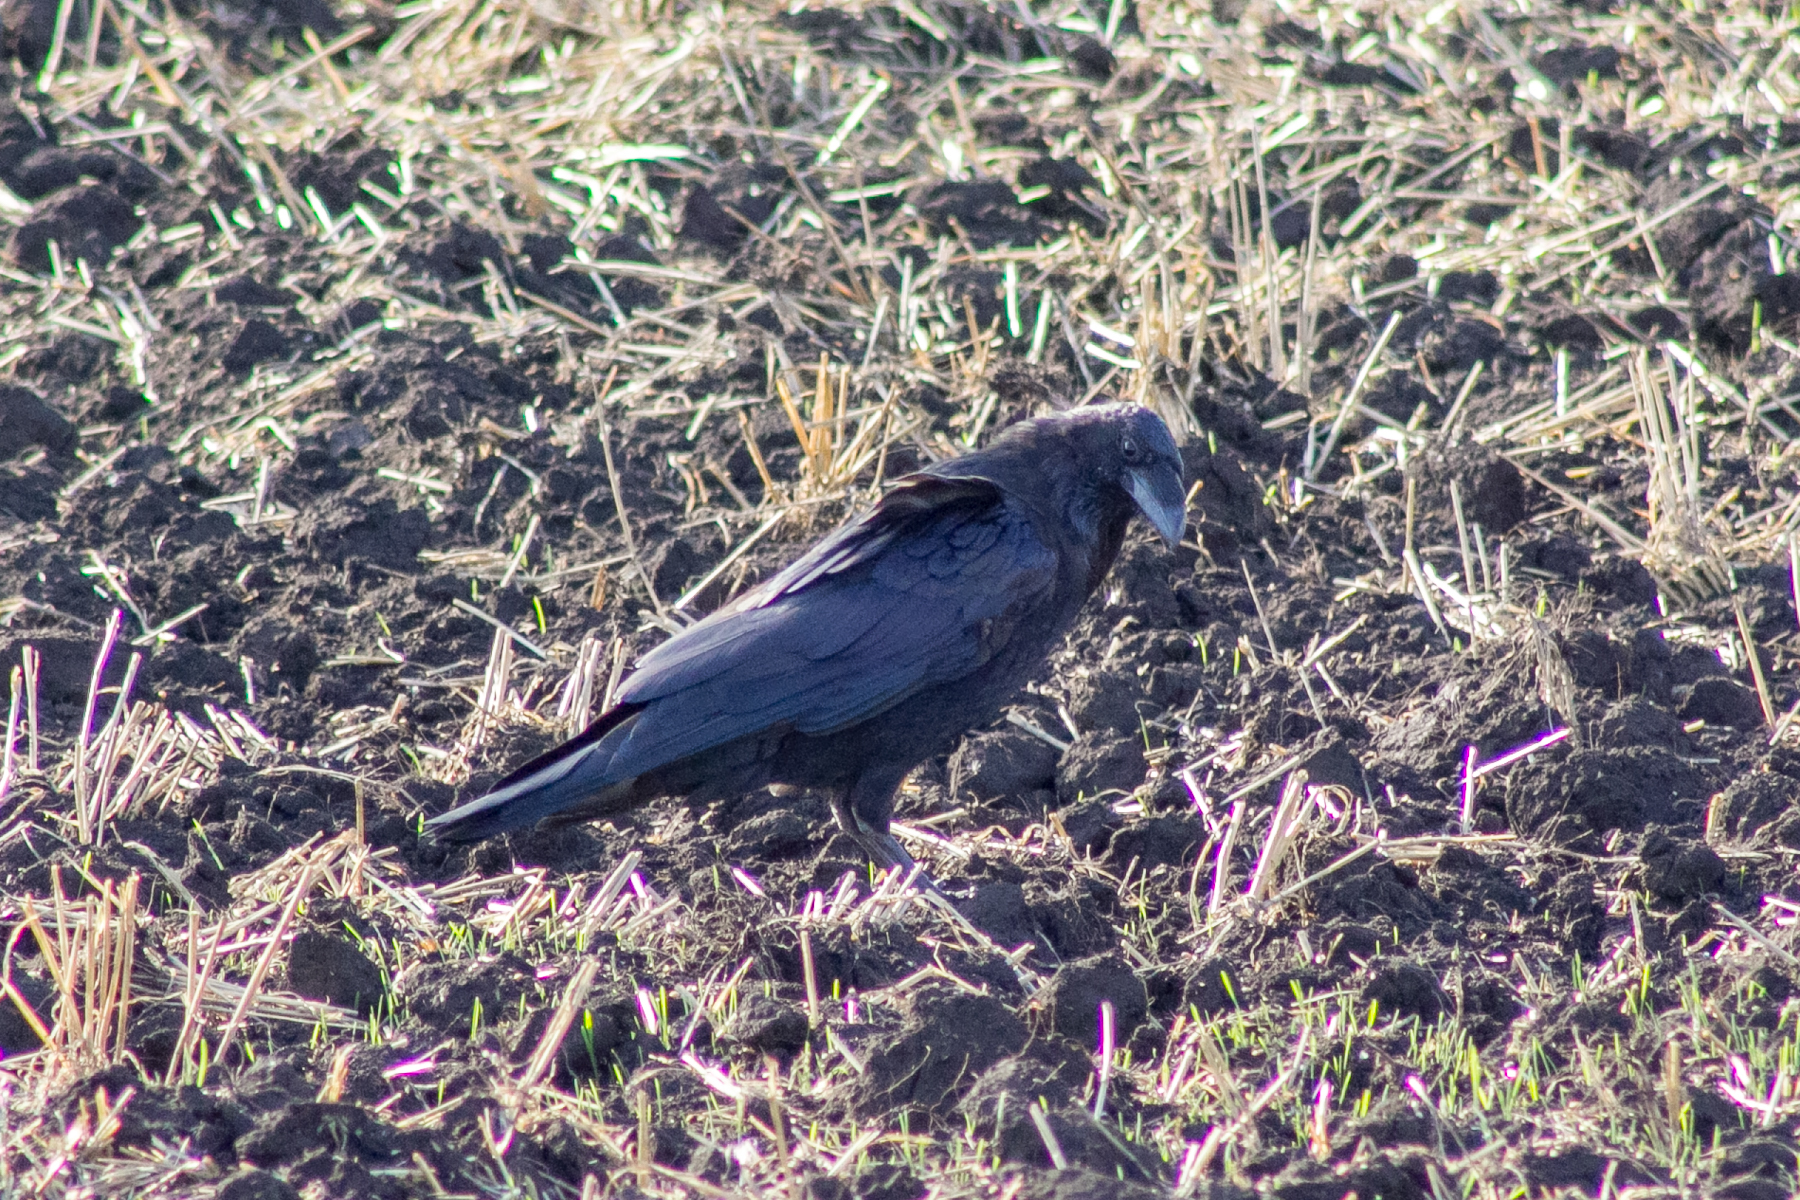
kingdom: Animalia
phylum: Chordata
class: Aves
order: Passeriformes
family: Corvidae
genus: Corvus
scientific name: Corvus corax
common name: Common raven
